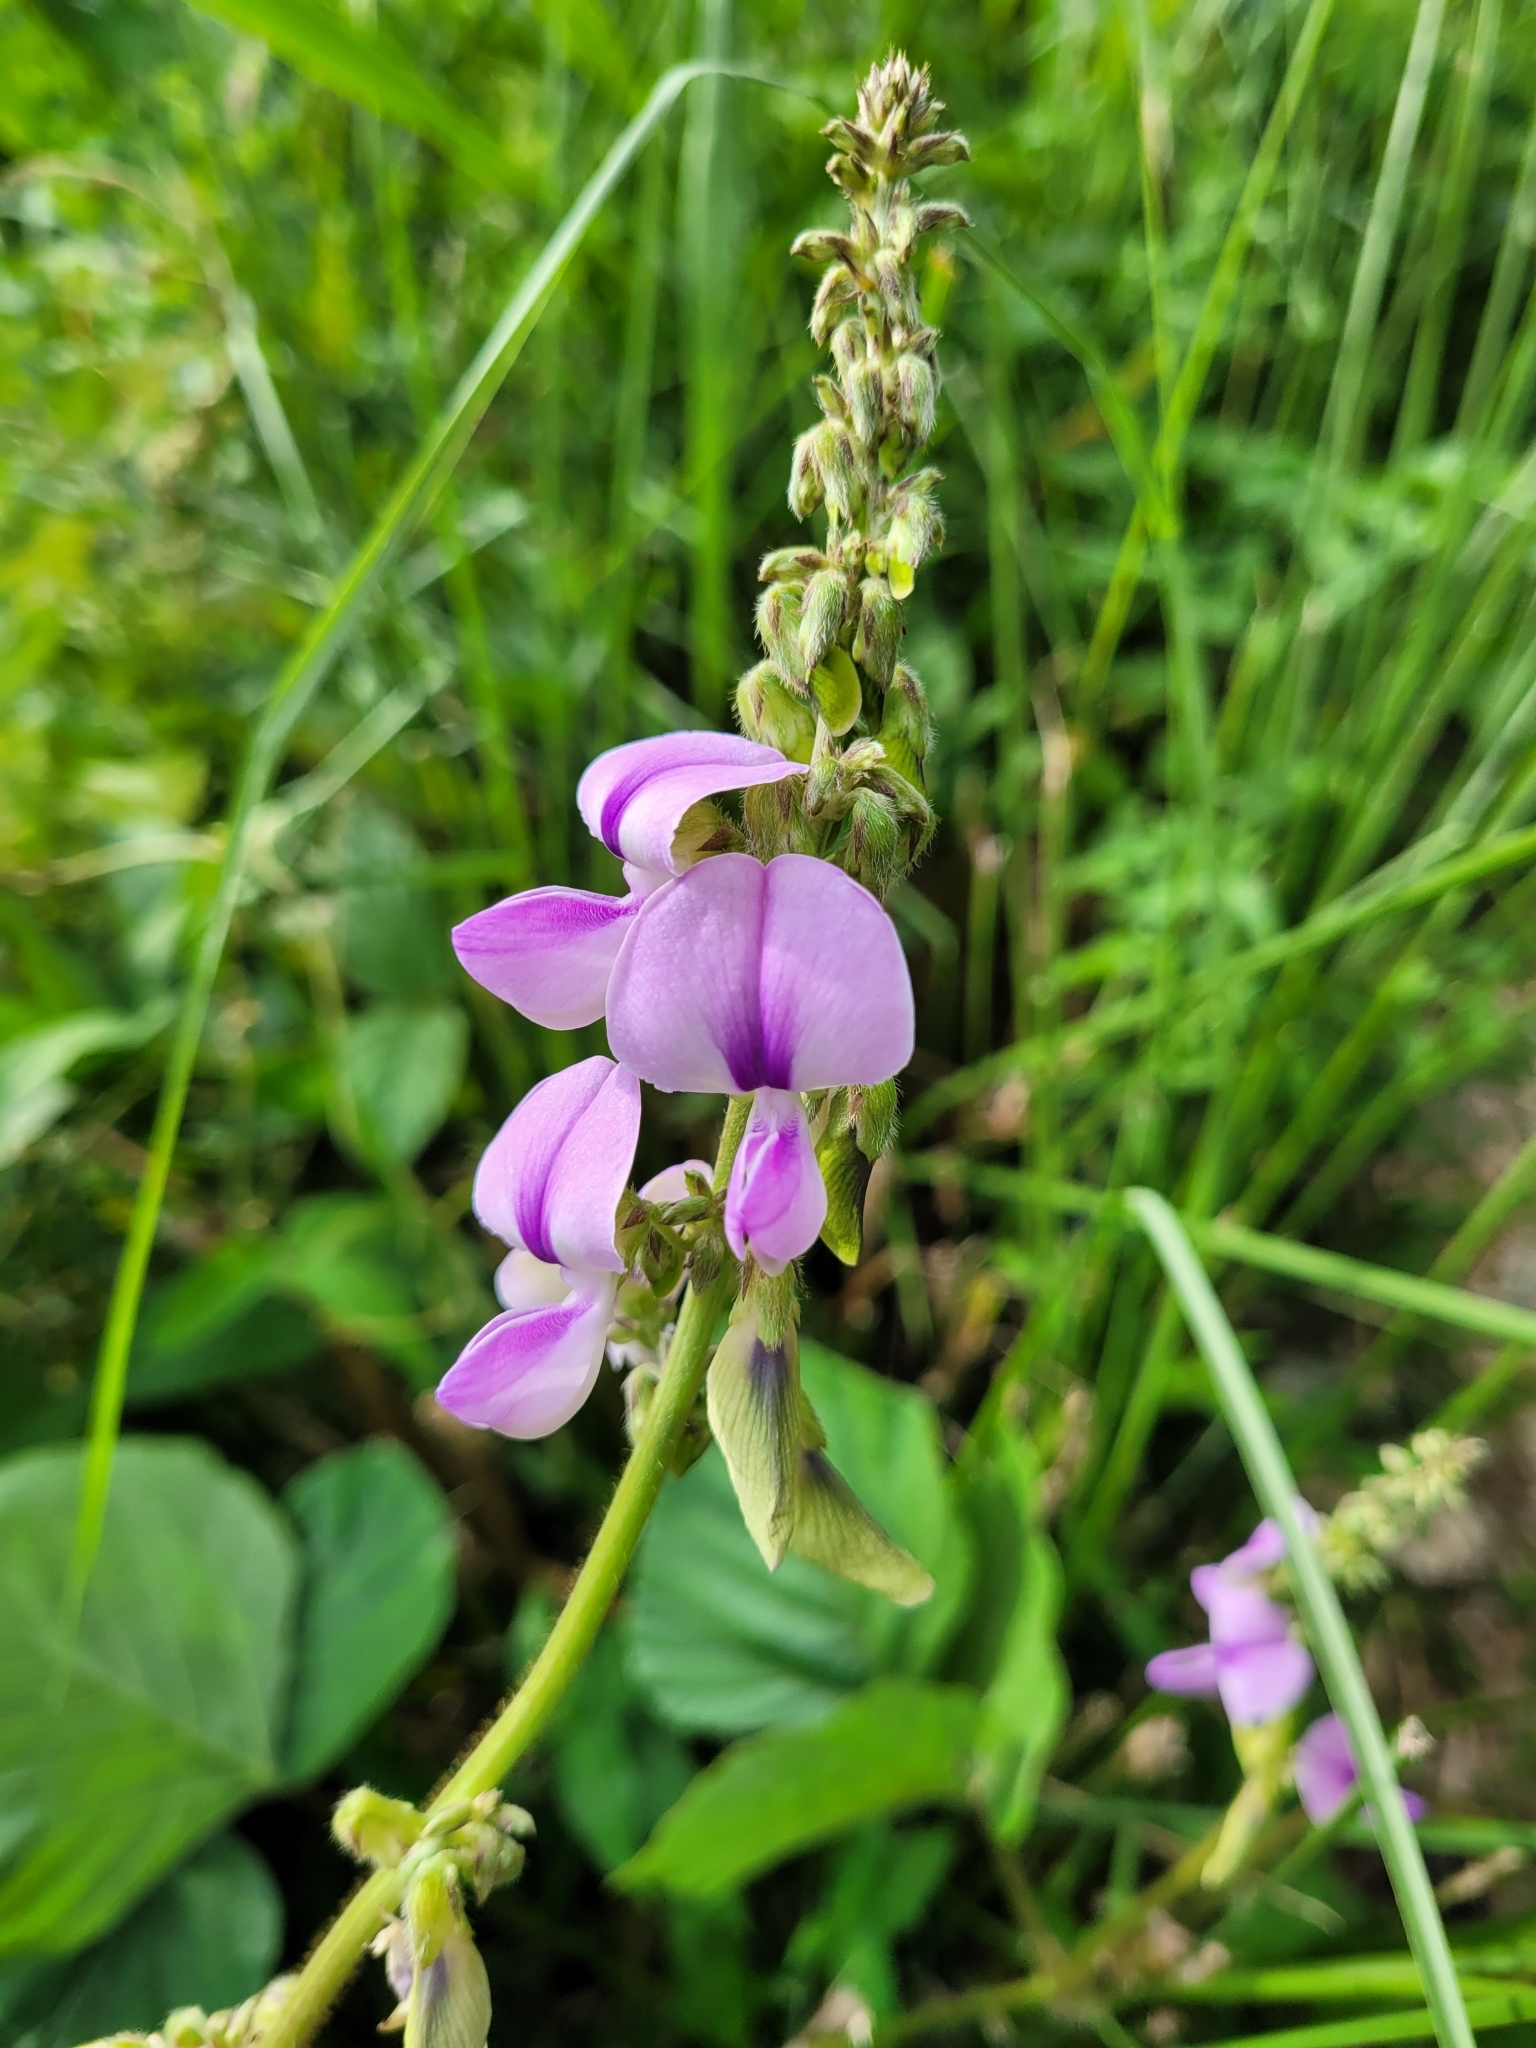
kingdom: Plantae
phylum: Tracheophyta
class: Magnoliopsida
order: Fabales
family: Fabaceae
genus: Neustanthus
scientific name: Neustanthus phaseoloides
